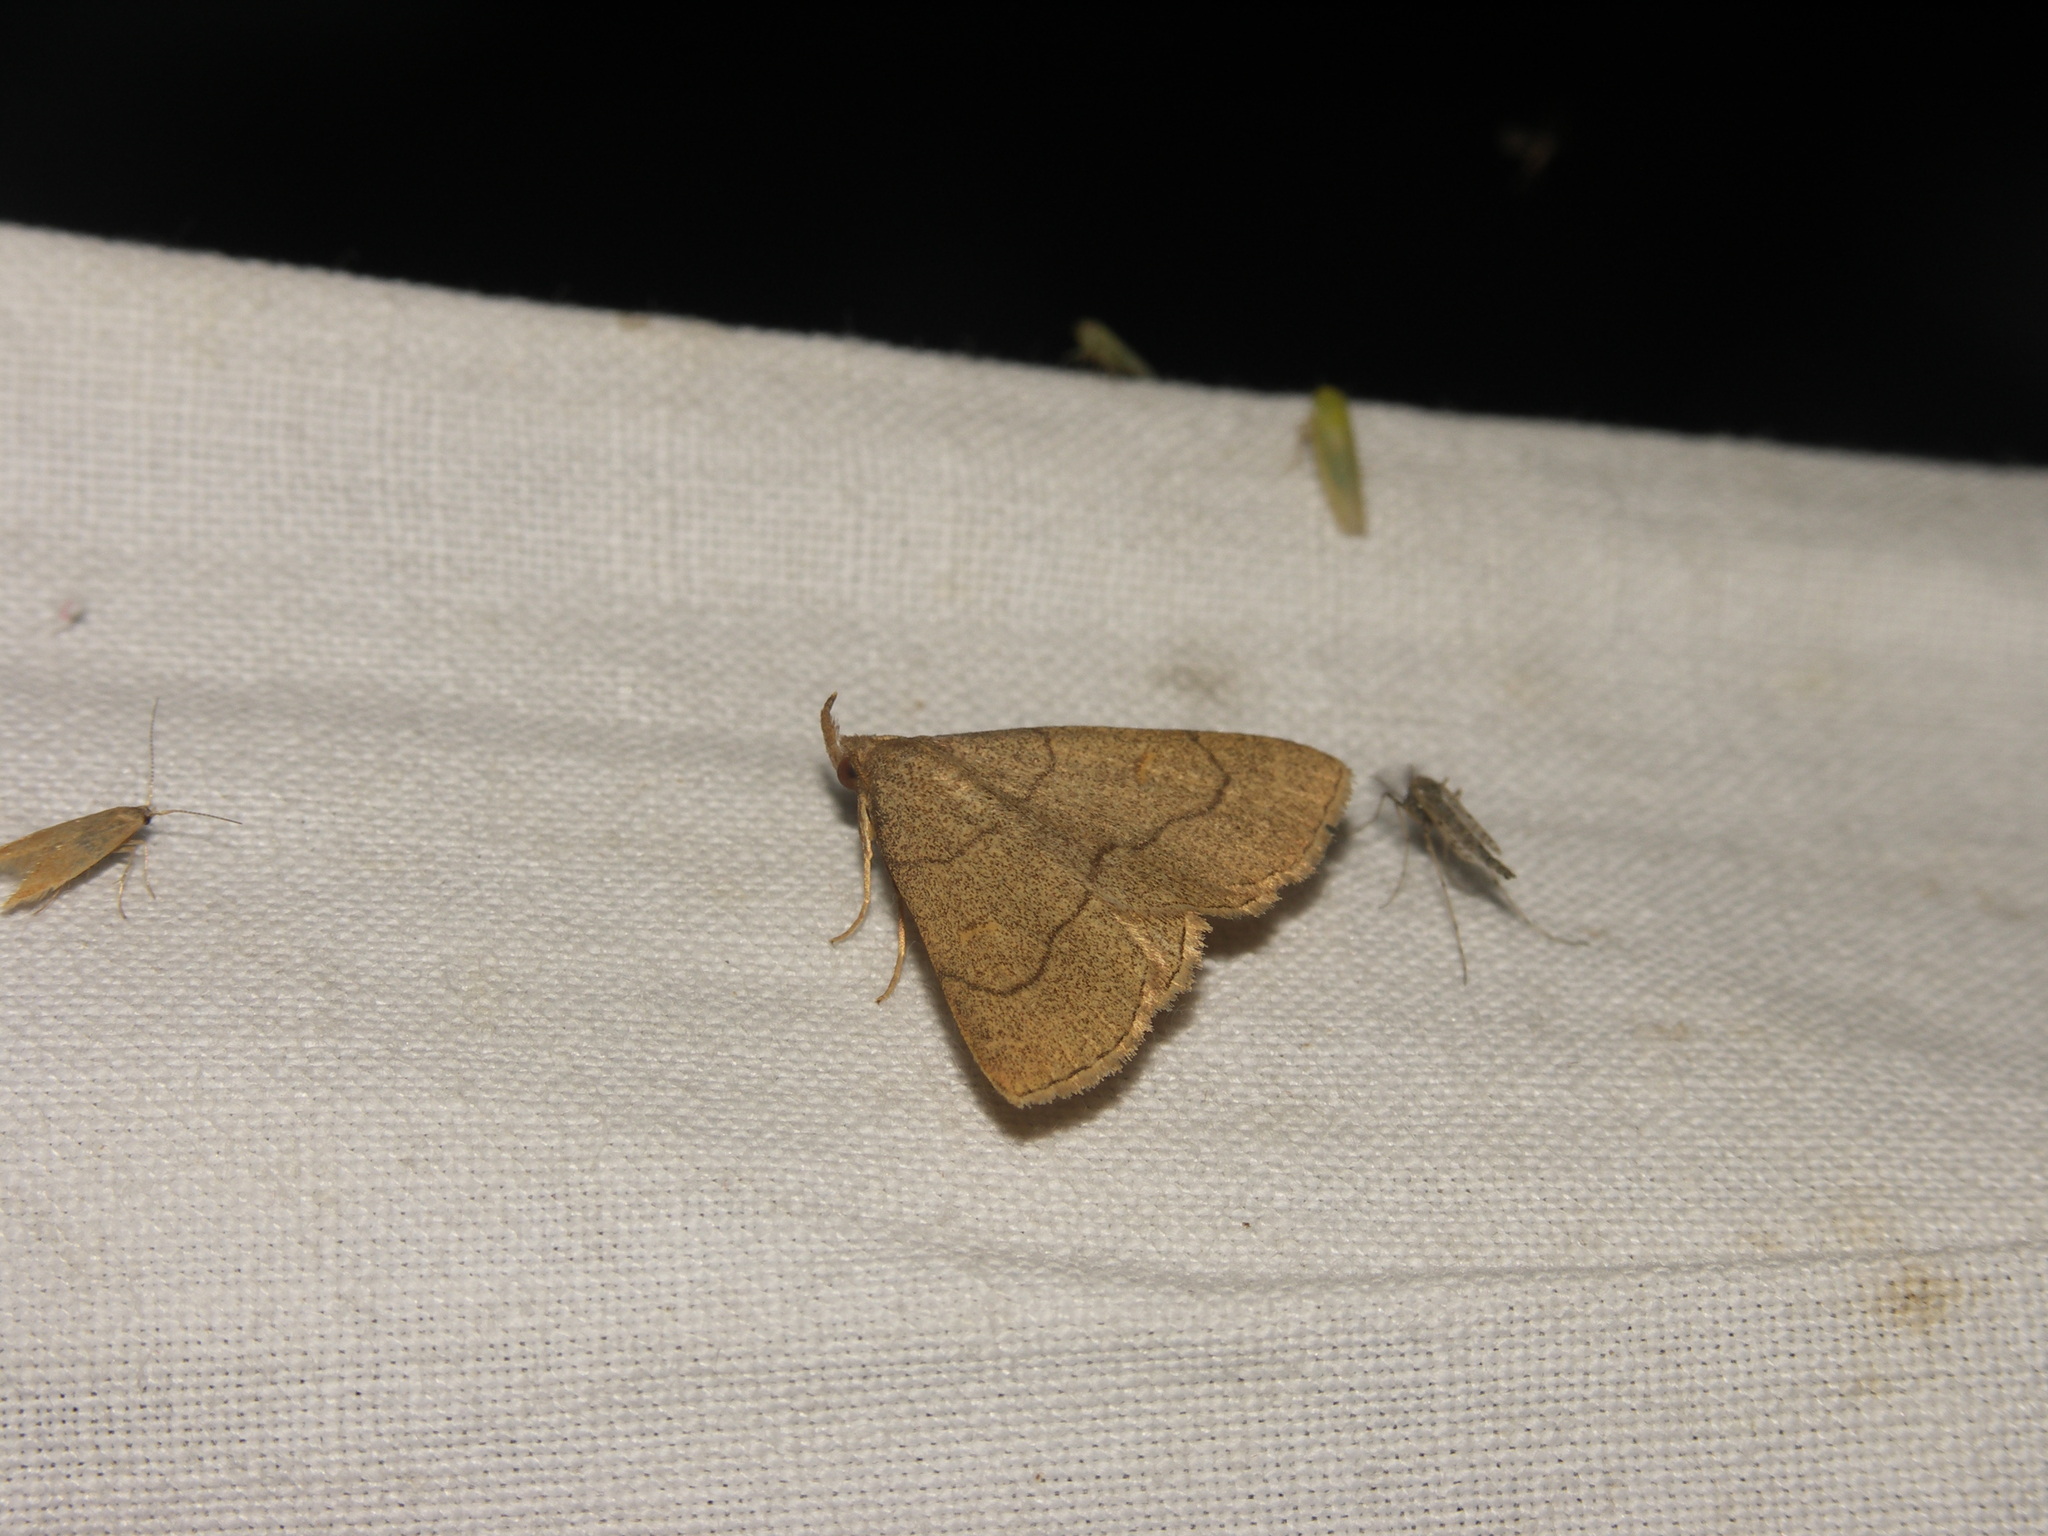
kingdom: Animalia
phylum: Arthropoda
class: Insecta
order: Lepidoptera
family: Erebidae
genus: Paracolax
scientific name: Paracolax tristalis
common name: Clay fan-foot
